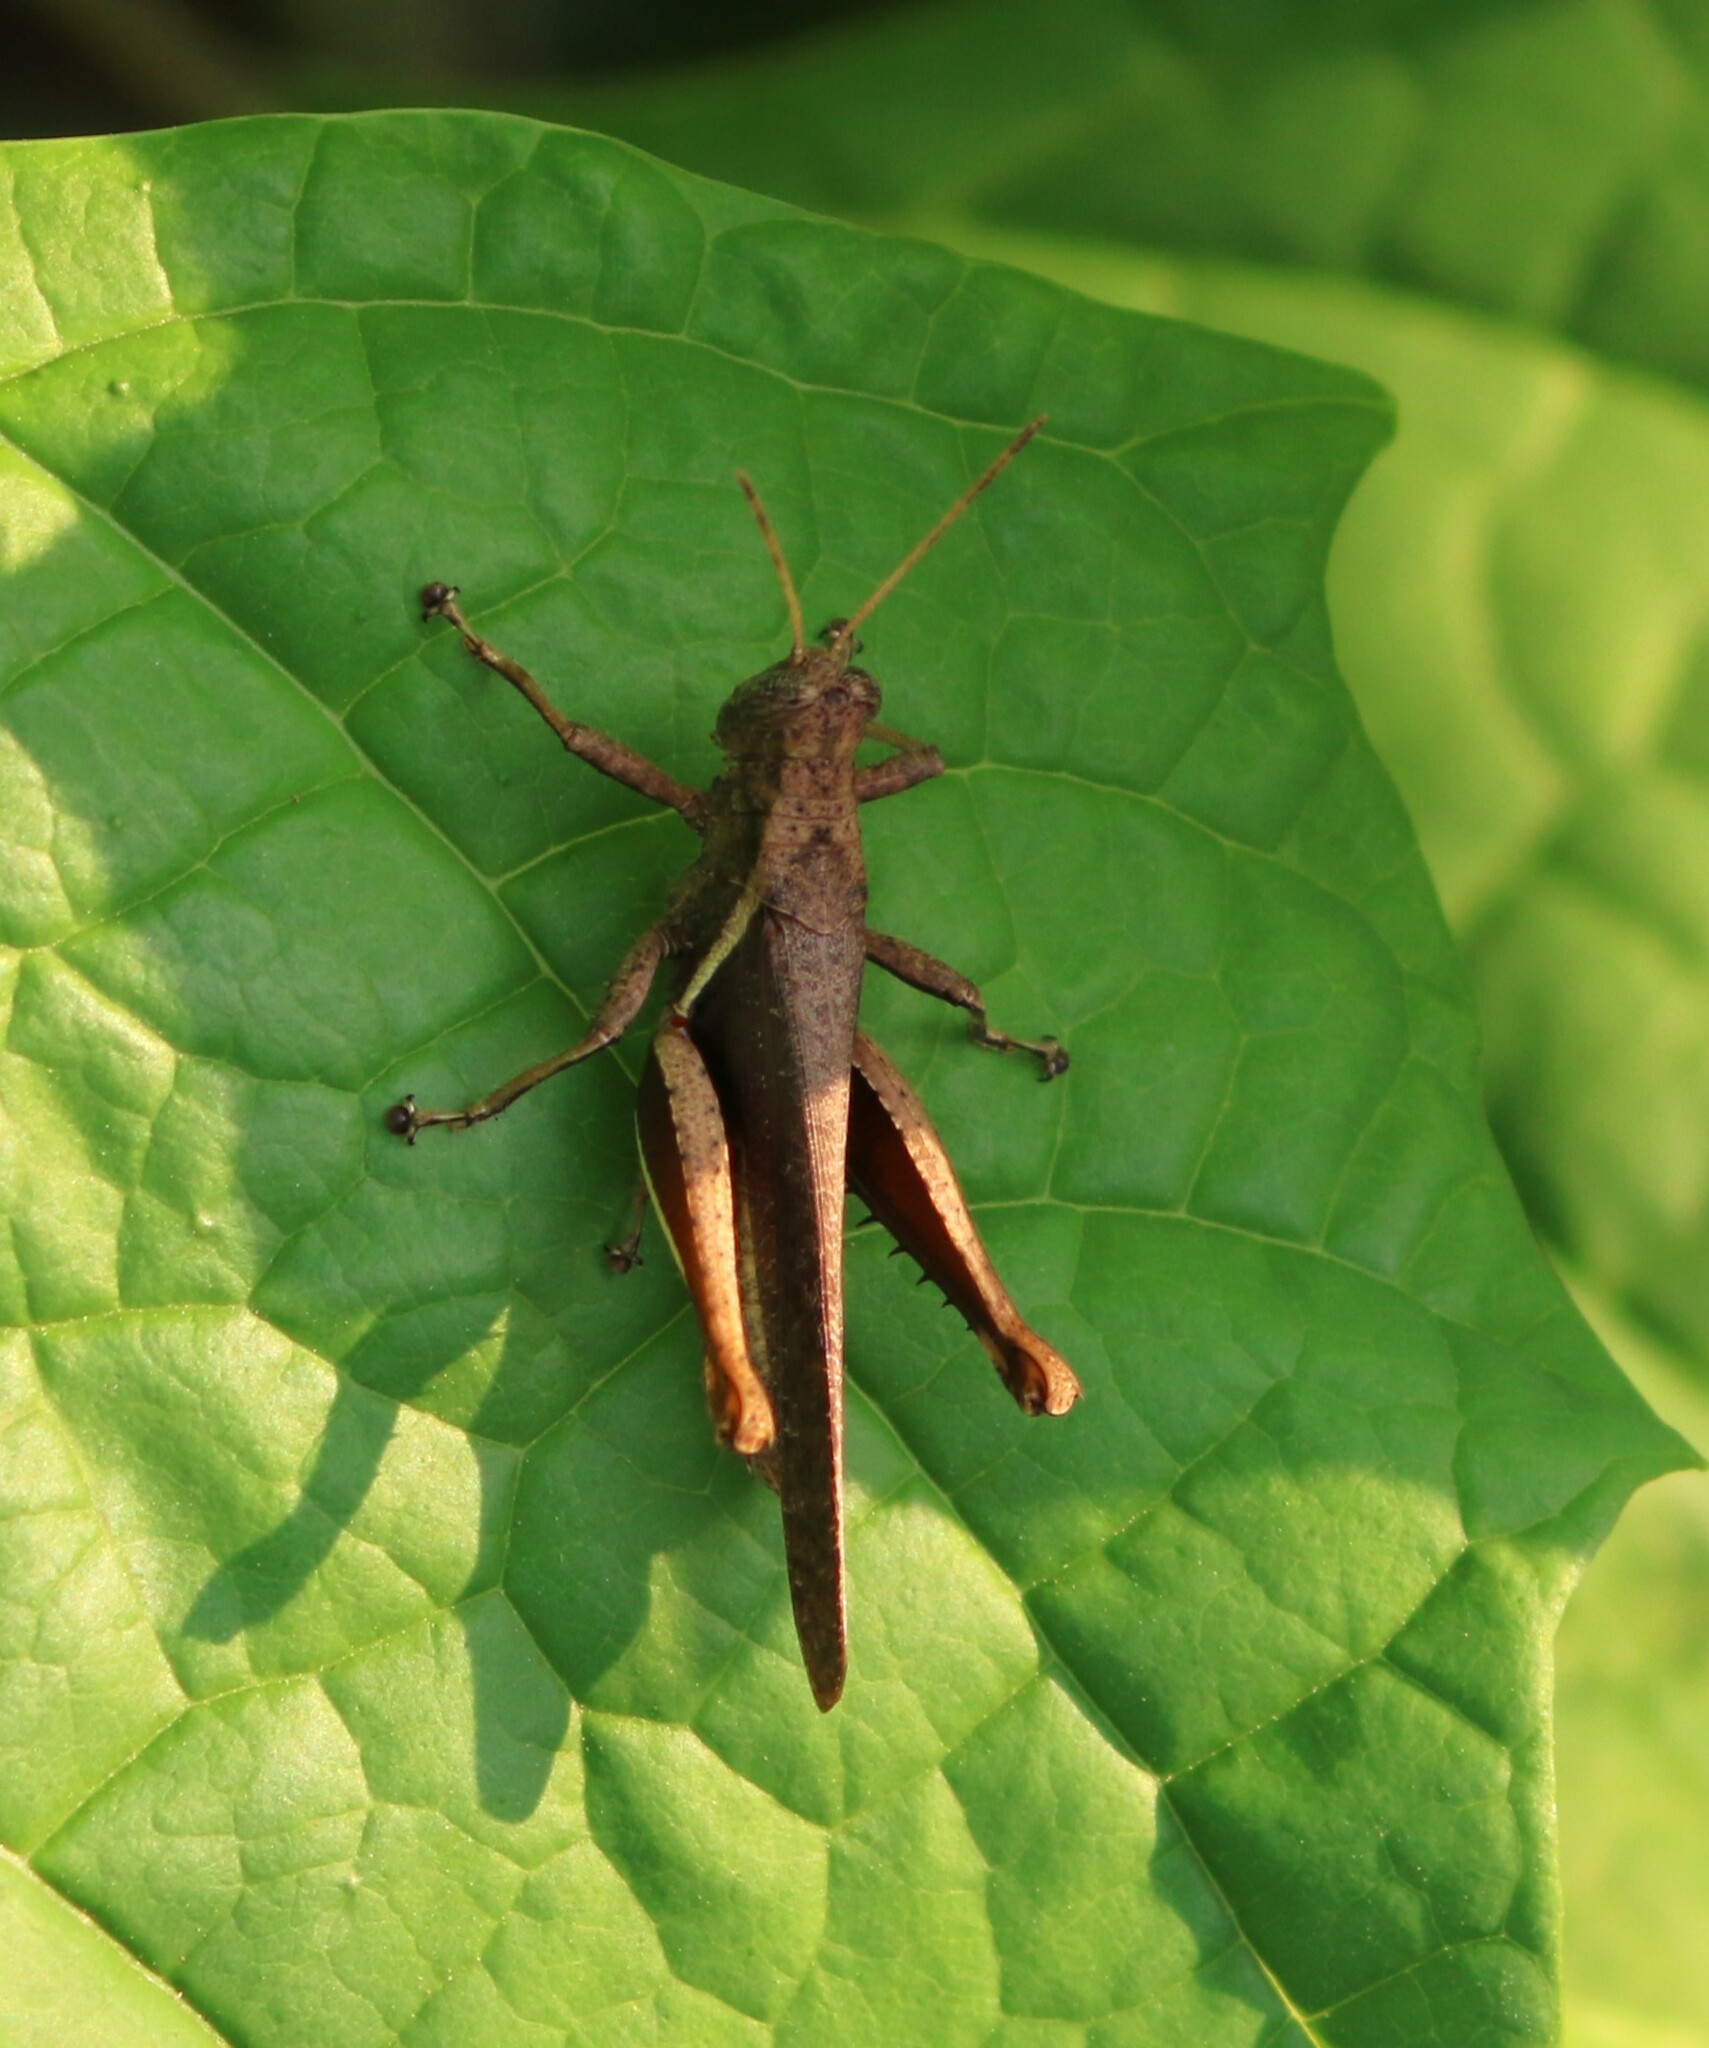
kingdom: Animalia
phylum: Arthropoda
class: Insecta
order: Orthoptera
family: Acrididae
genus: Abracris
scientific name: Abracris flavolineata
